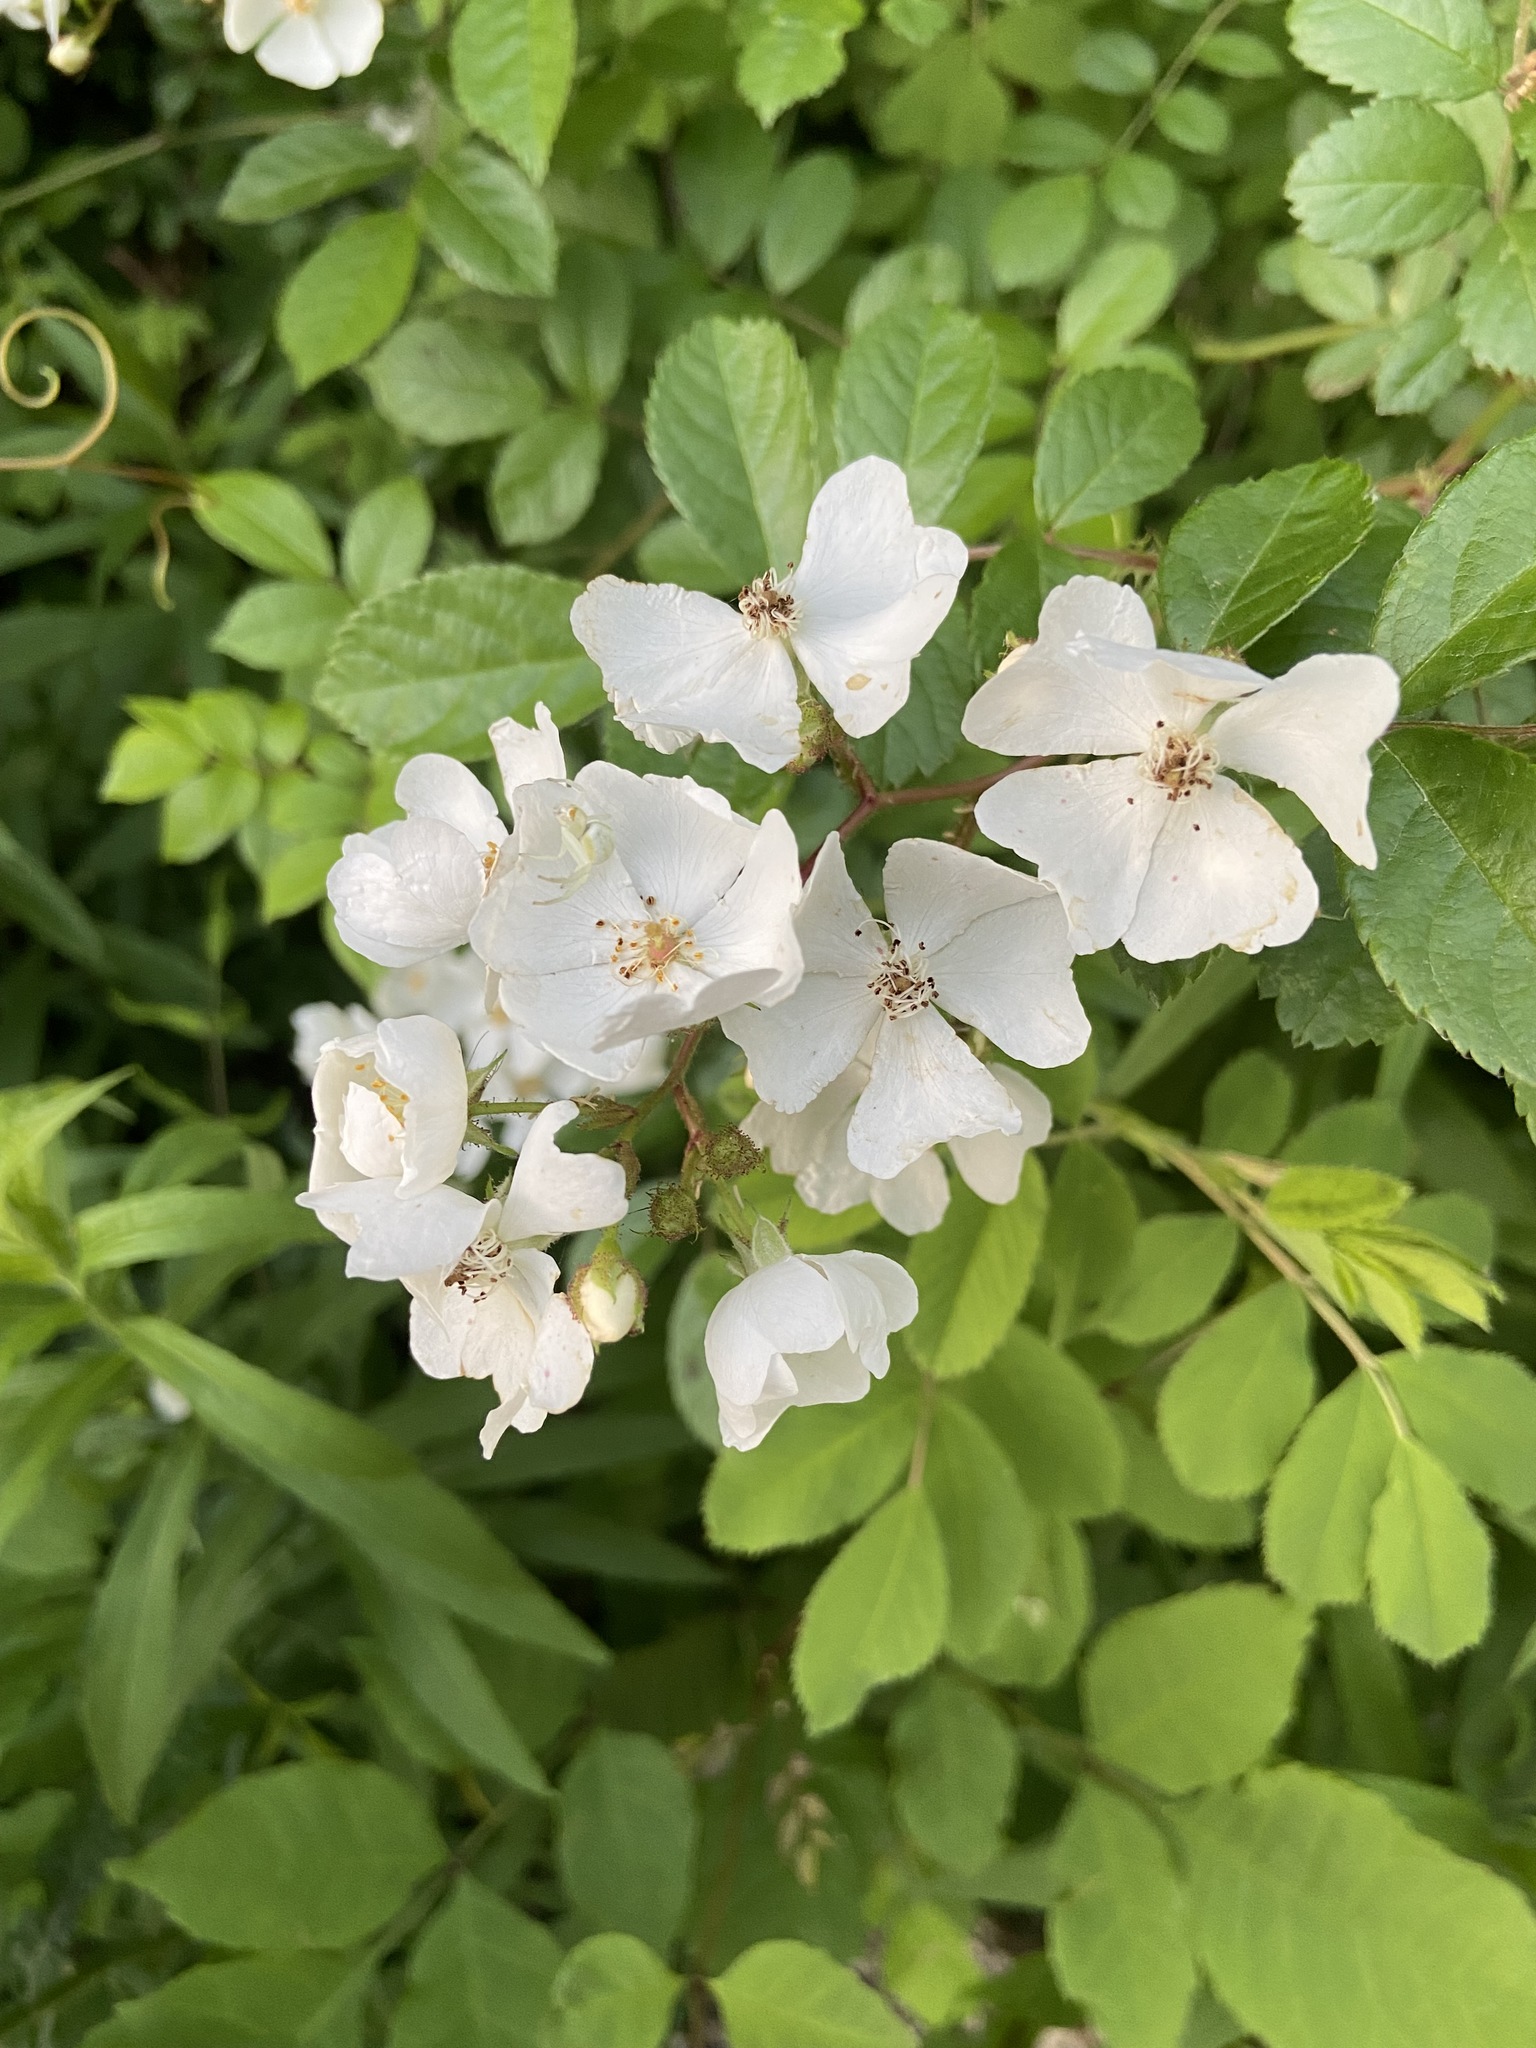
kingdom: Plantae
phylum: Tracheophyta
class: Magnoliopsida
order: Rosales
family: Rosaceae
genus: Rosa
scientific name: Rosa multiflora
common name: Multiflora rose
